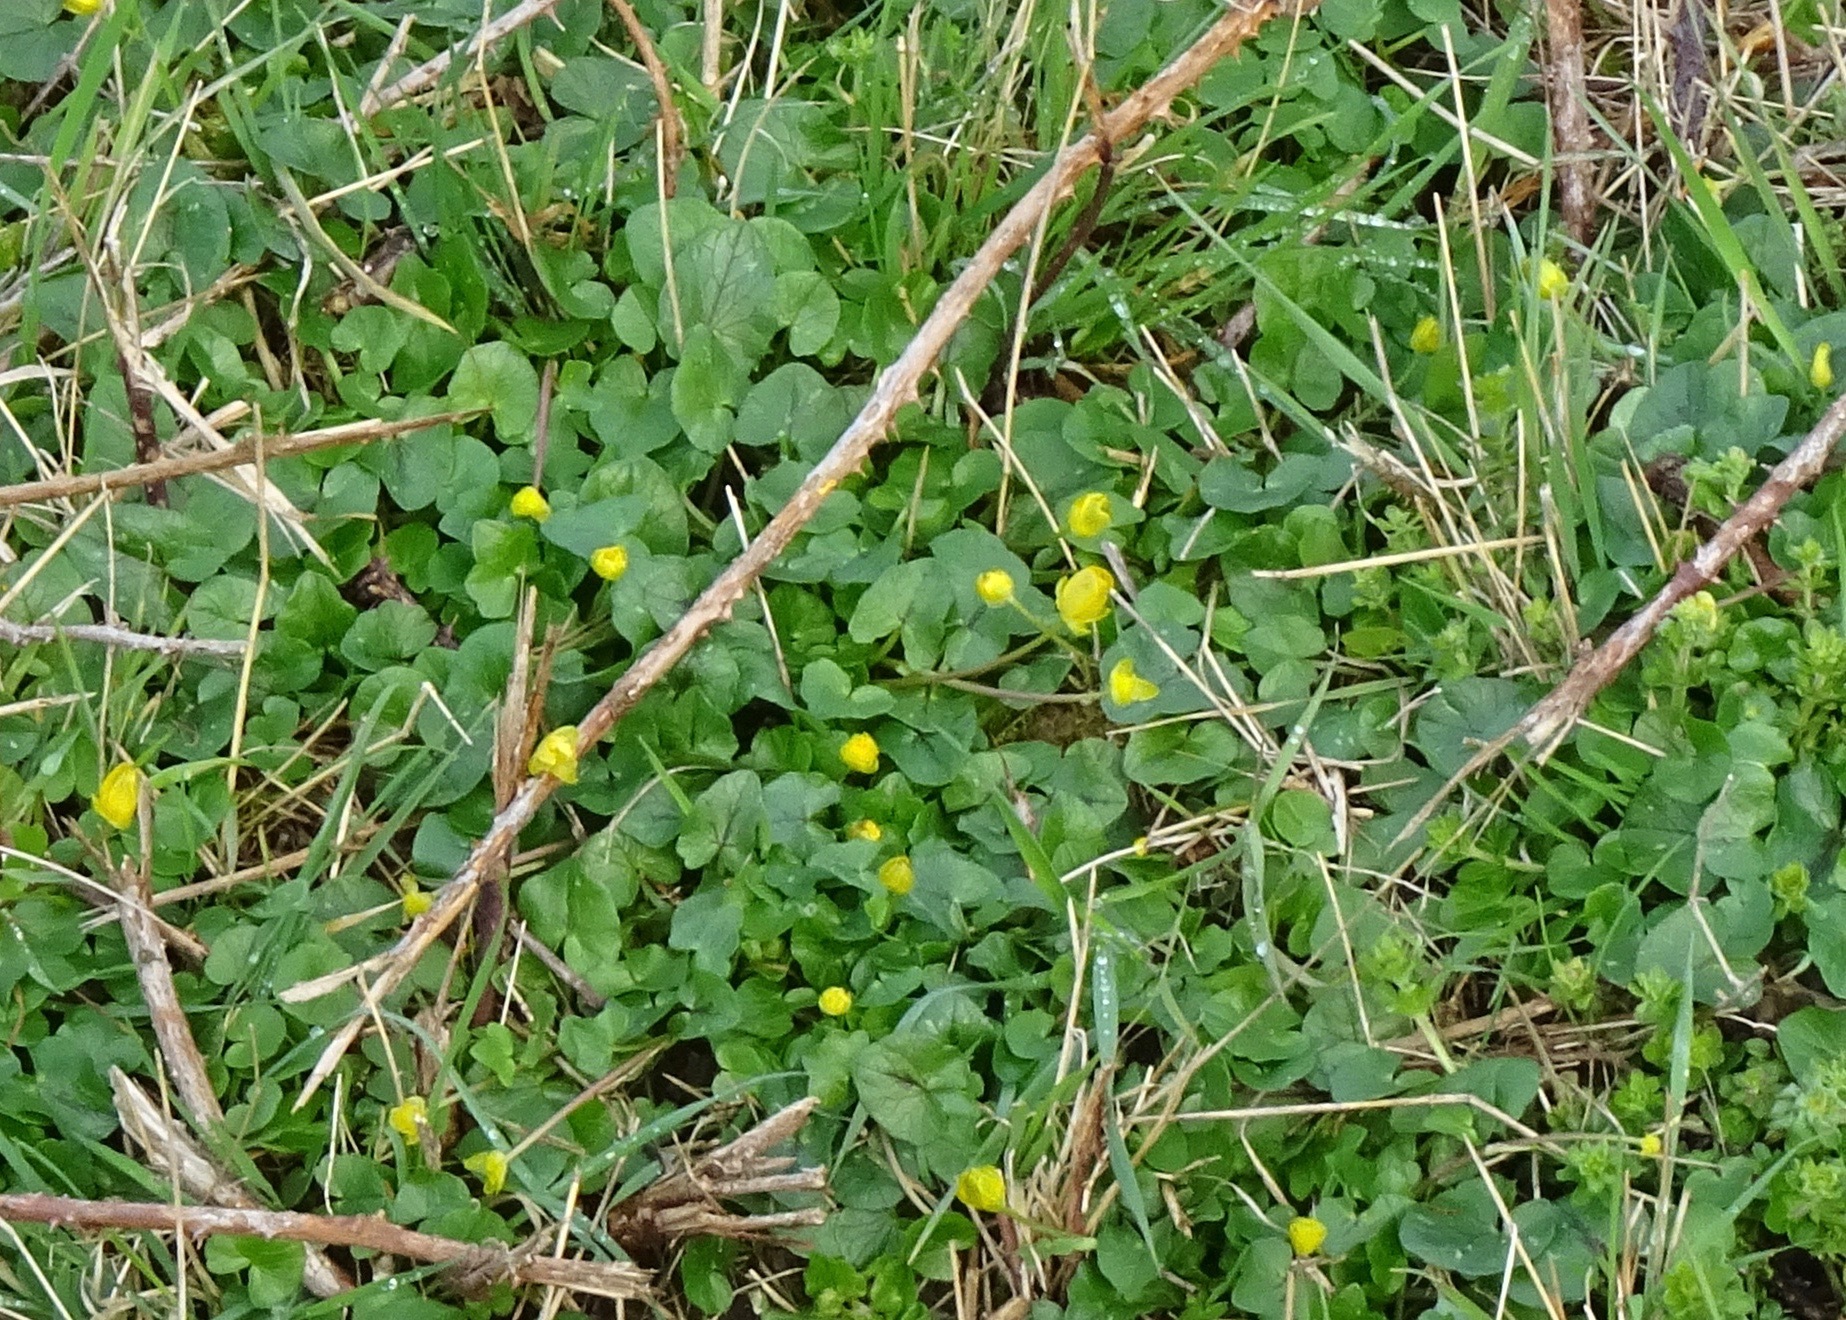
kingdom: Plantae
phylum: Tracheophyta
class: Magnoliopsida
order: Ranunculales
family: Ranunculaceae
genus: Ficaria
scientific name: Ficaria verna
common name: Lesser celandine
